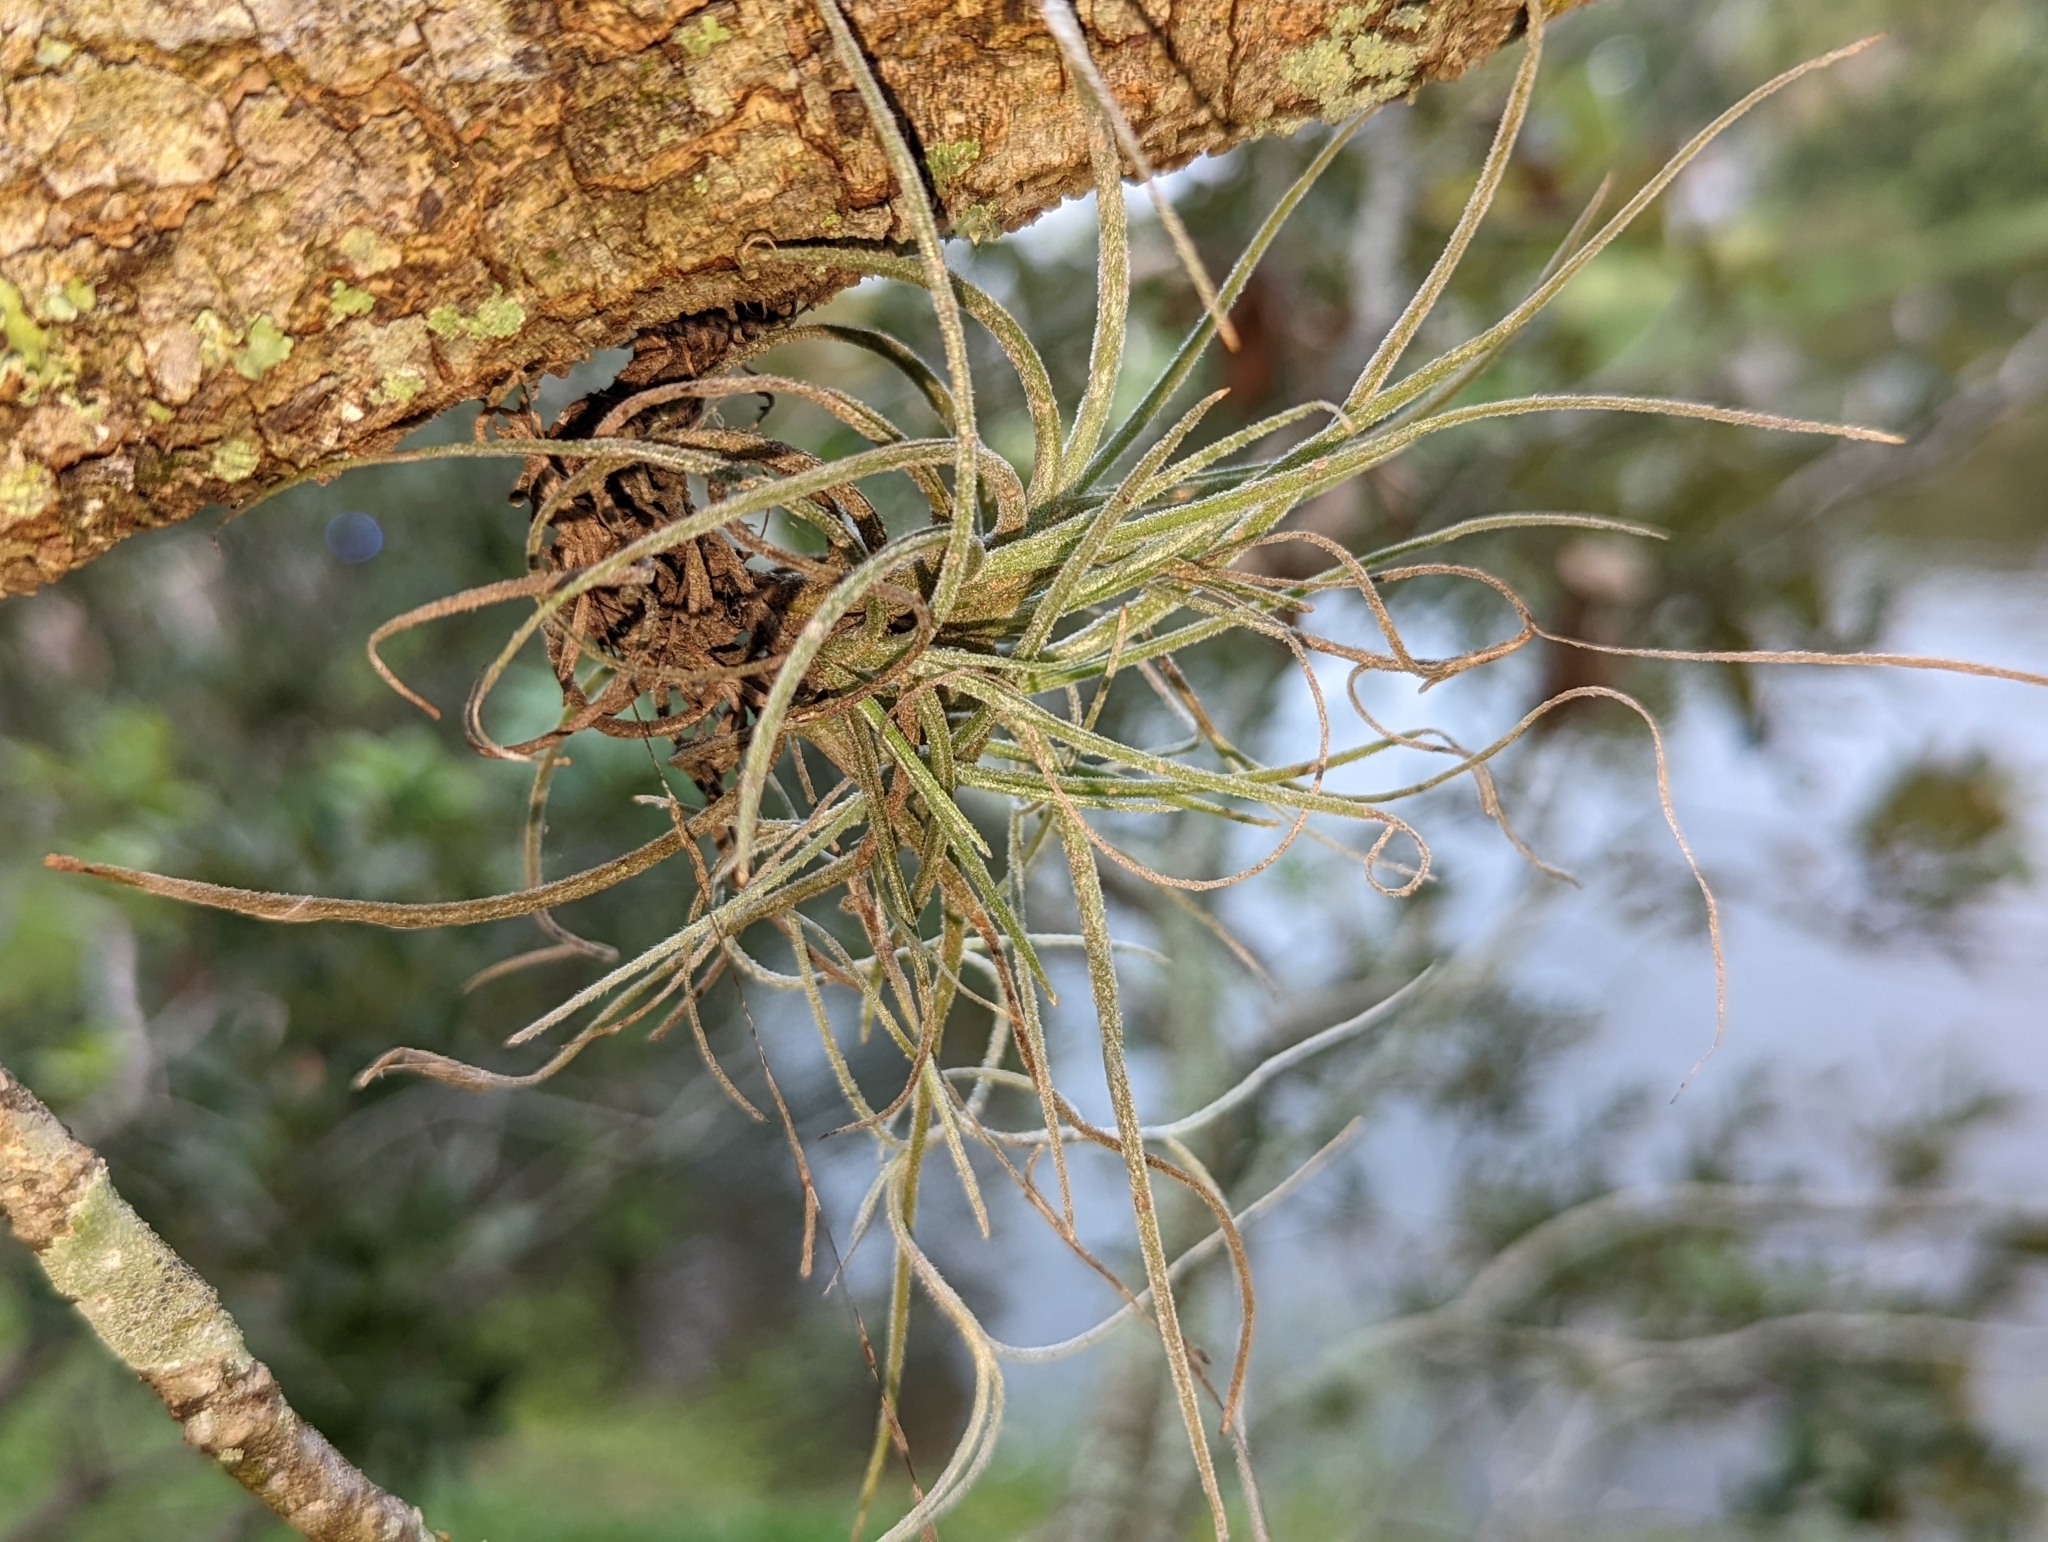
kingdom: Plantae
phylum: Tracheophyta
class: Liliopsida
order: Poales
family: Bromeliaceae
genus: Tillandsia
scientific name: Tillandsia recurvata
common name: Small ballmoss
